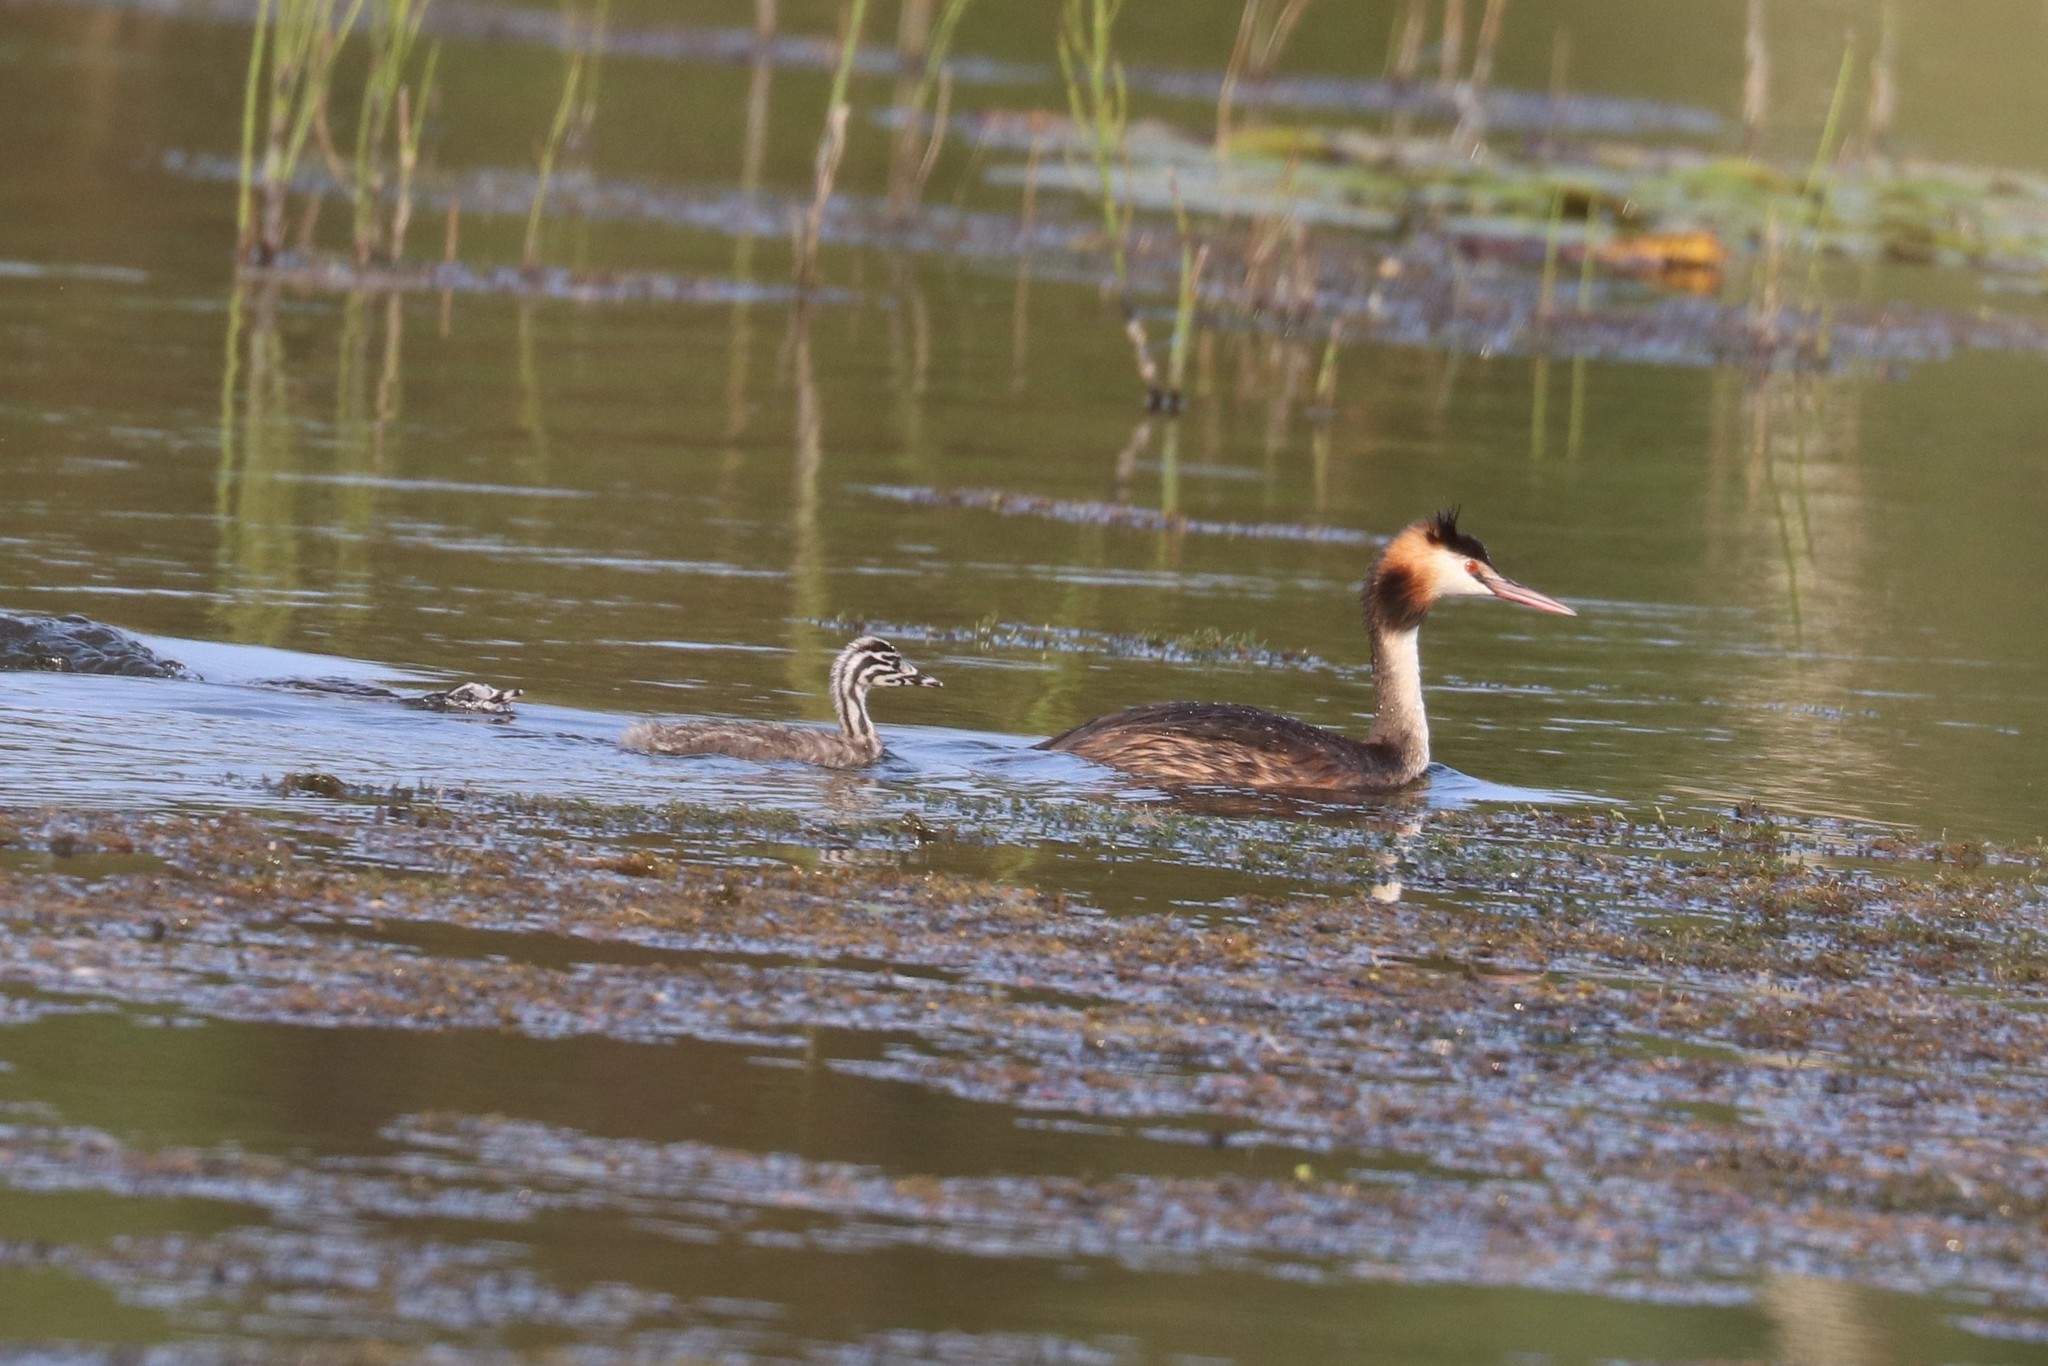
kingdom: Animalia
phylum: Chordata
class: Aves
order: Podicipediformes
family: Podicipedidae
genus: Podiceps
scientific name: Podiceps cristatus
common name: Great crested grebe
